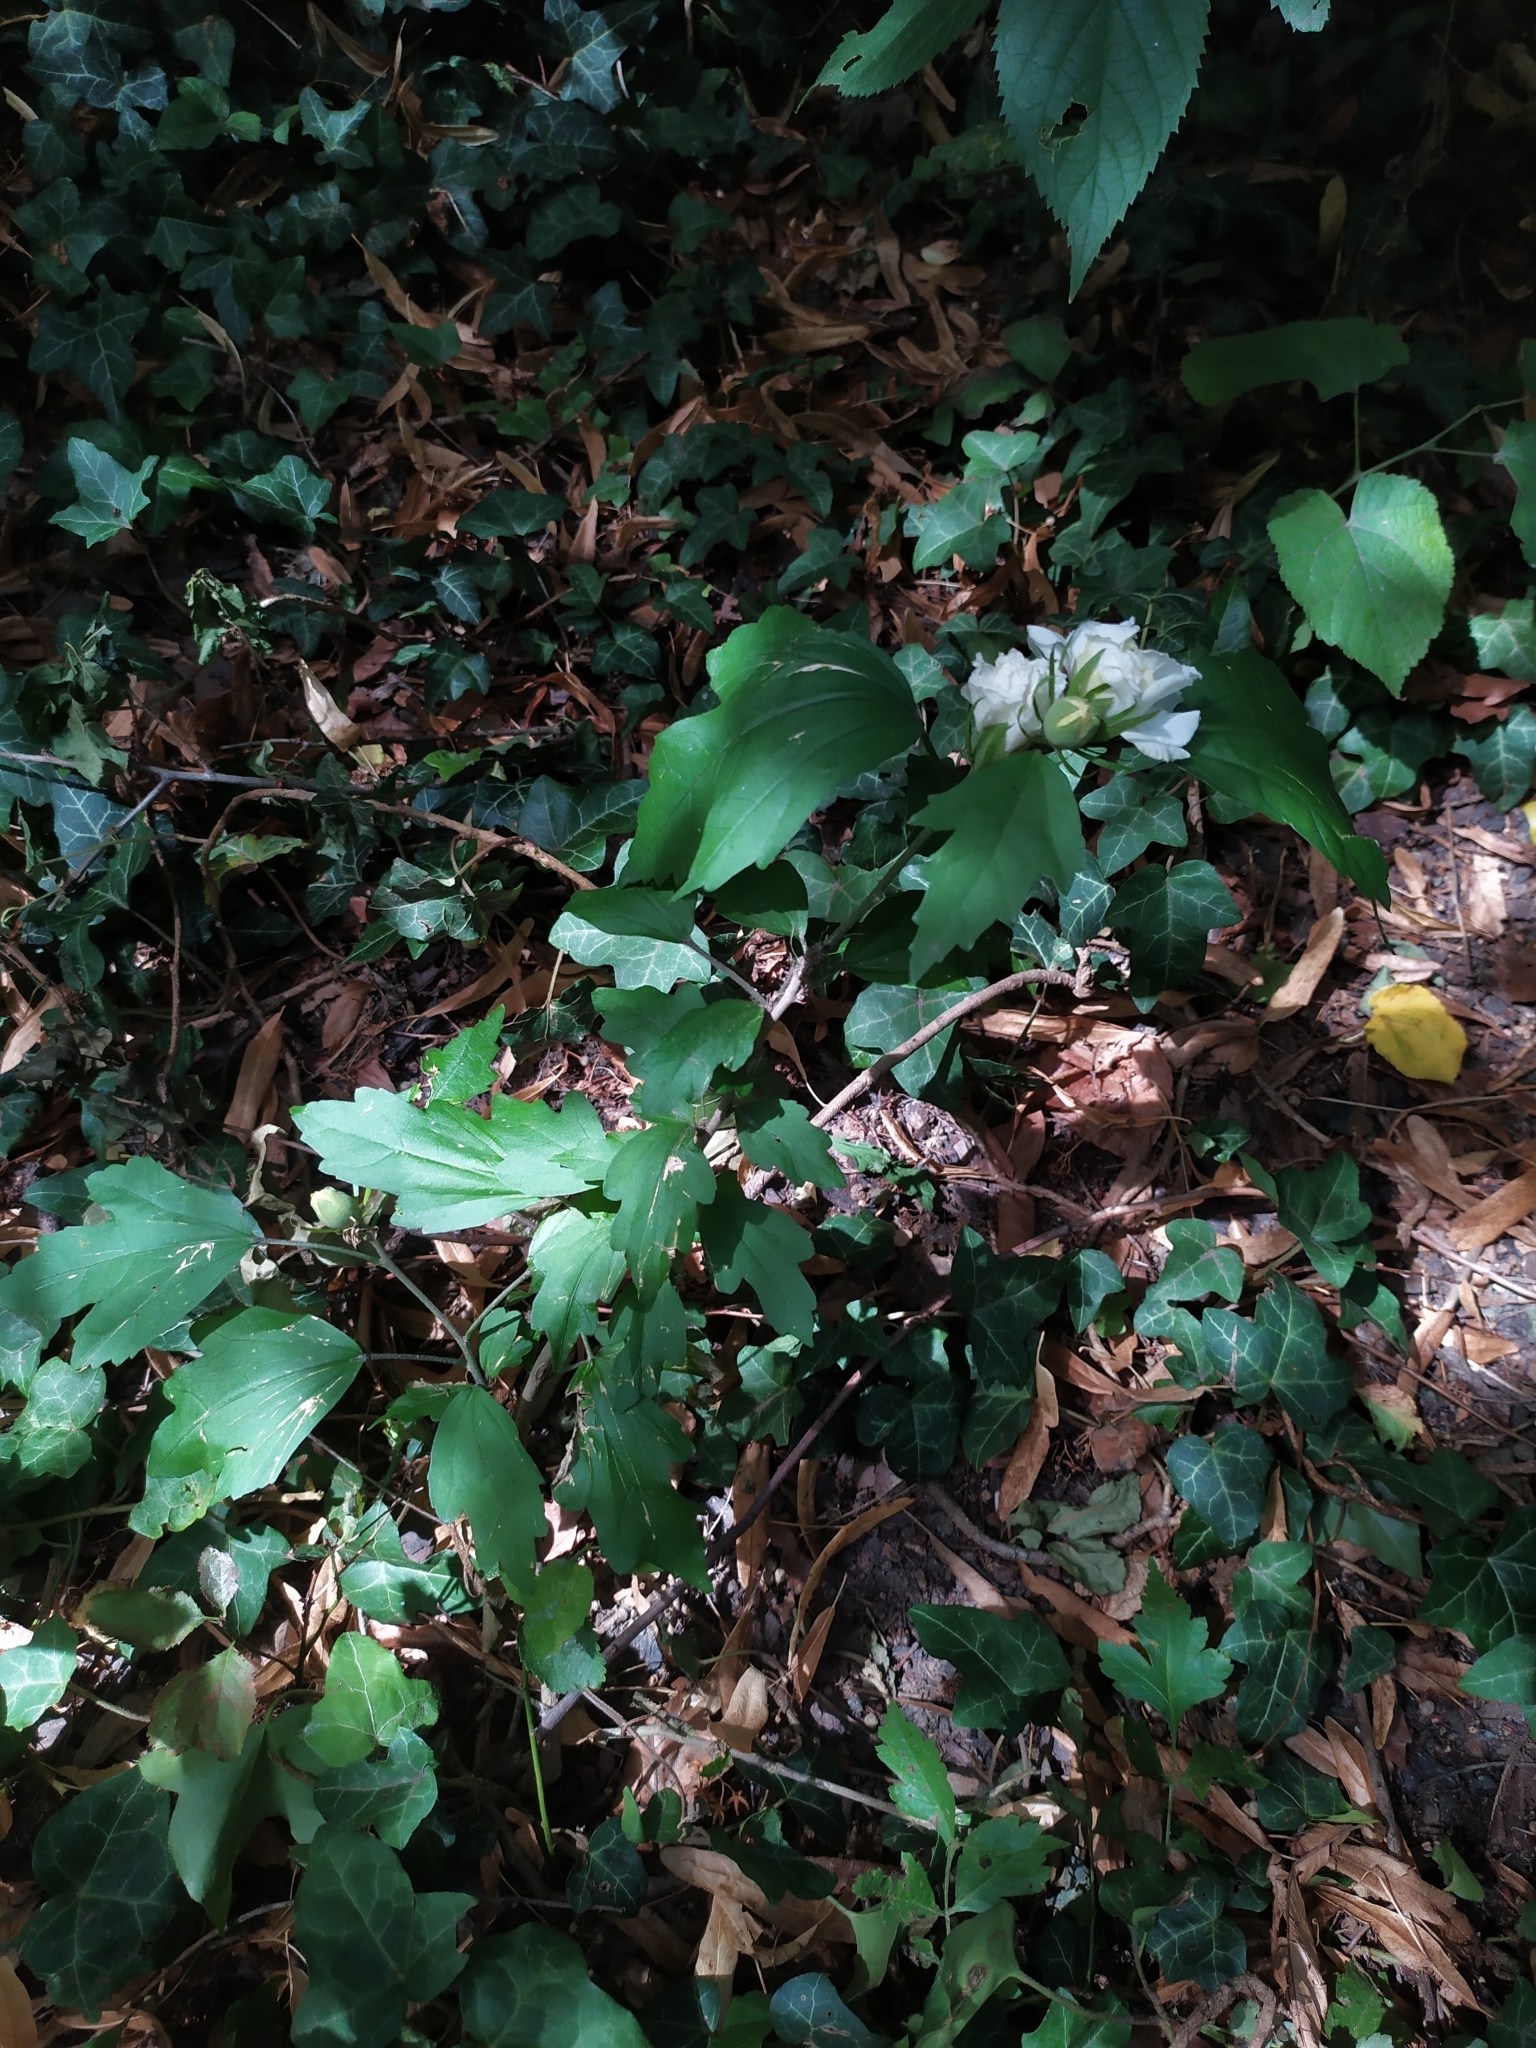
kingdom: Plantae
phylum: Tracheophyta
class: Magnoliopsida
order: Malvales
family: Malvaceae
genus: Hibiscus
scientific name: Hibiscus syriacus
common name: Syrian ketmia
